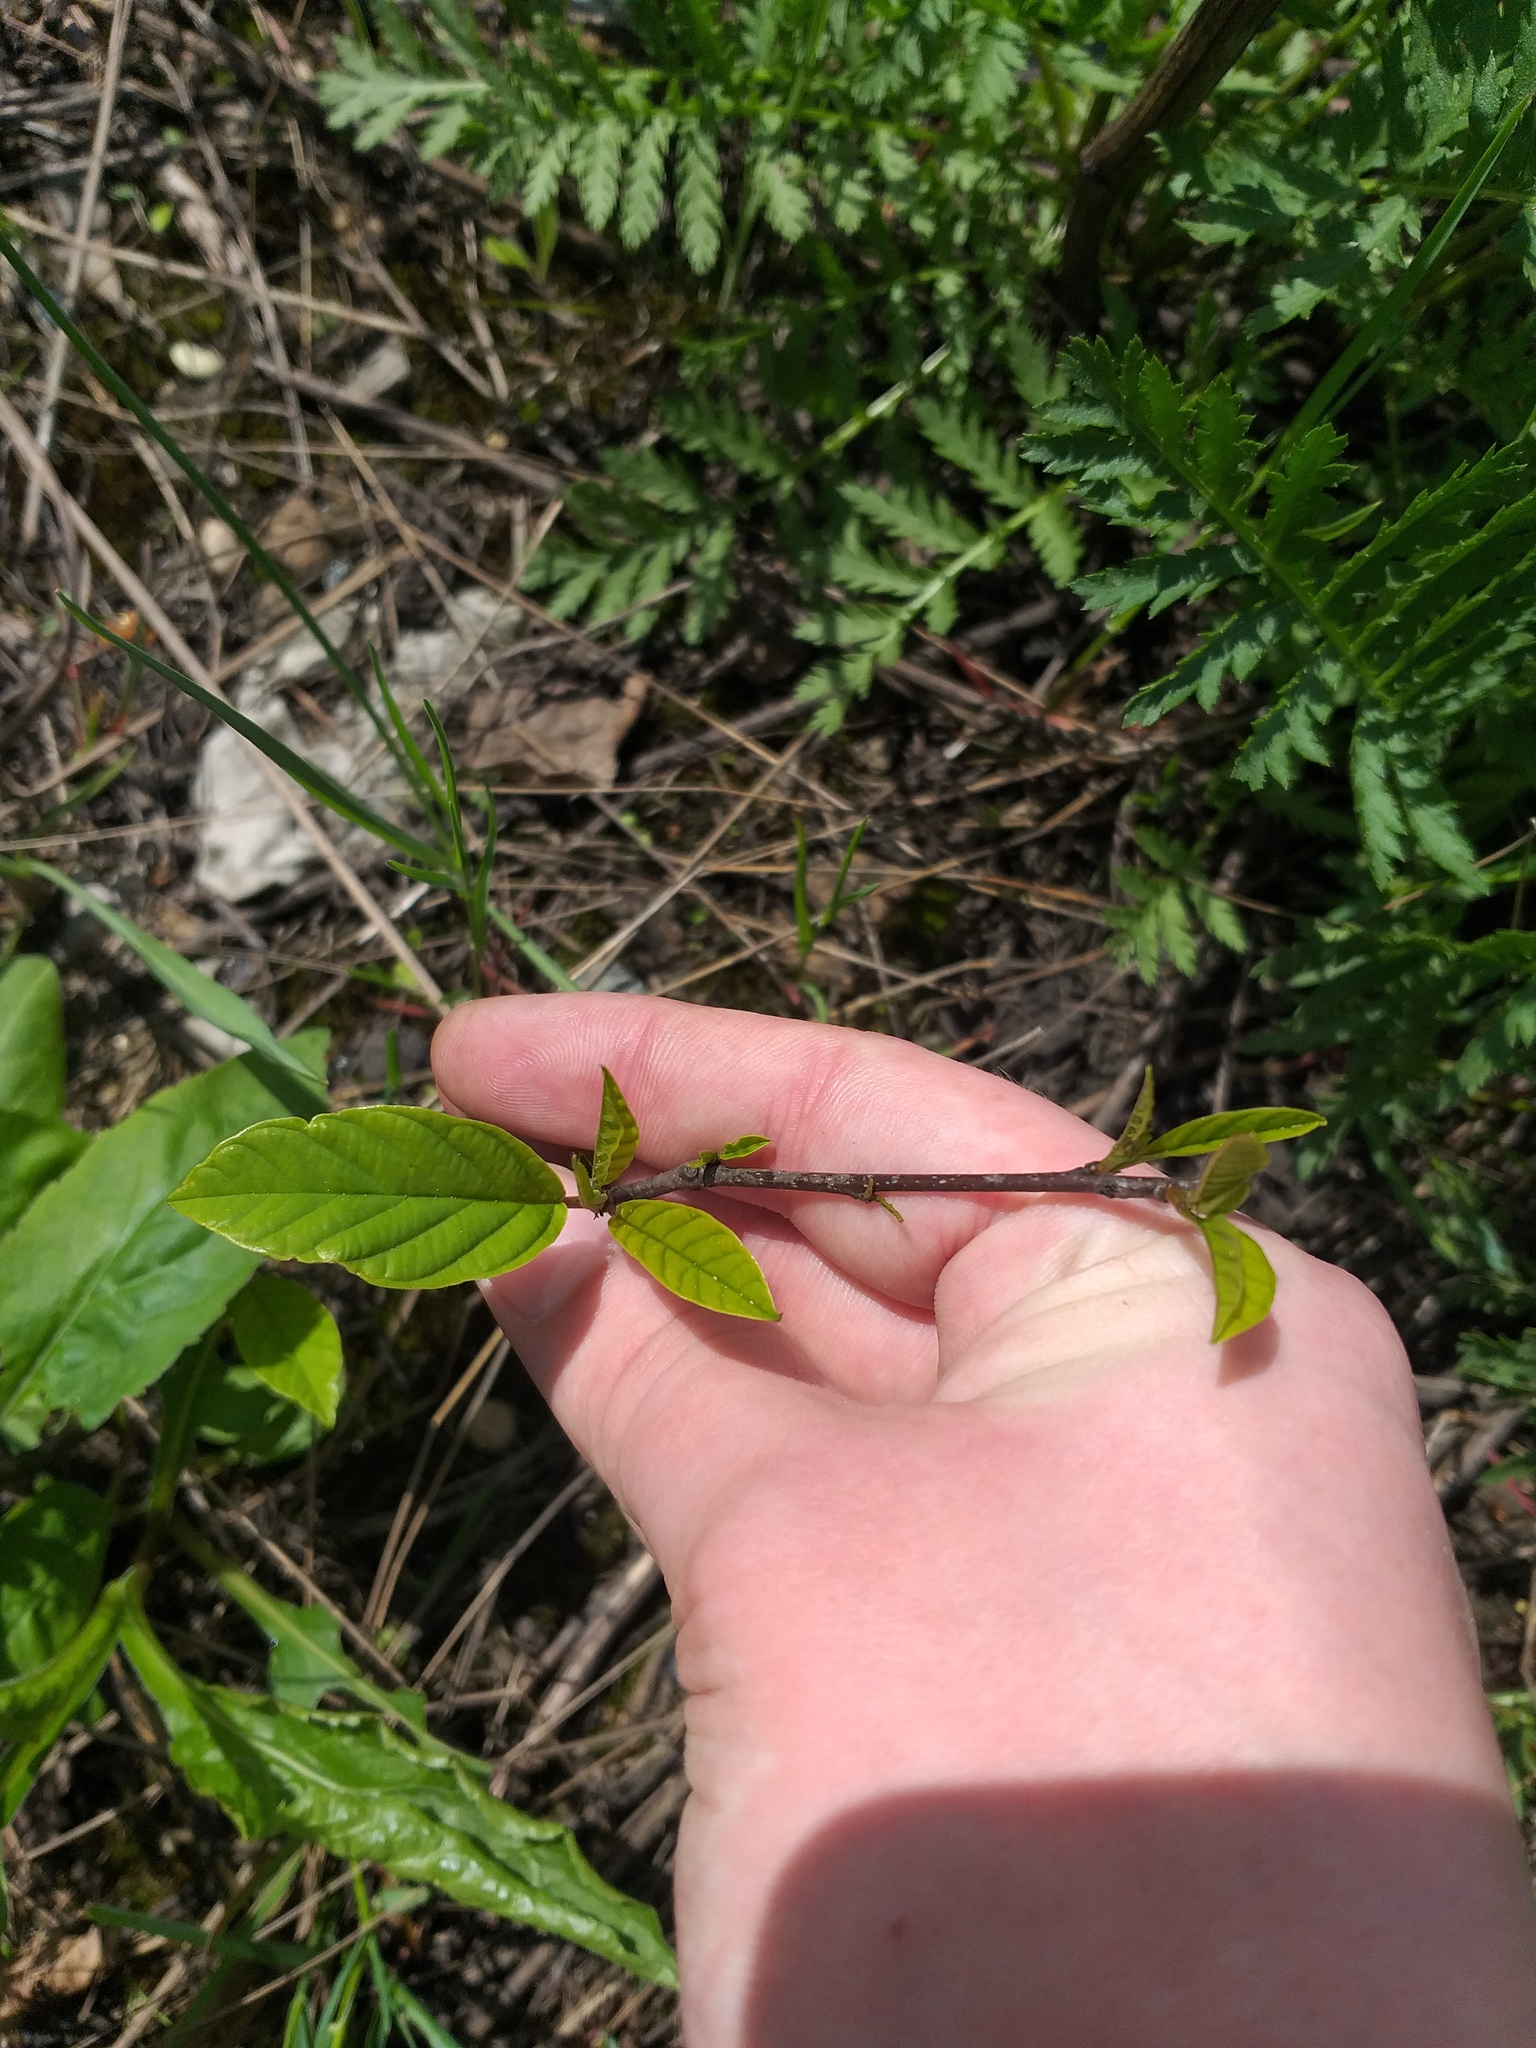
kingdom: Plantae
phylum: Tracheophyta
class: Magnoliopsida
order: Rosales
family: Rhamnaceae
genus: Frangula
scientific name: Frangula alnus
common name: Alder buckthorn
